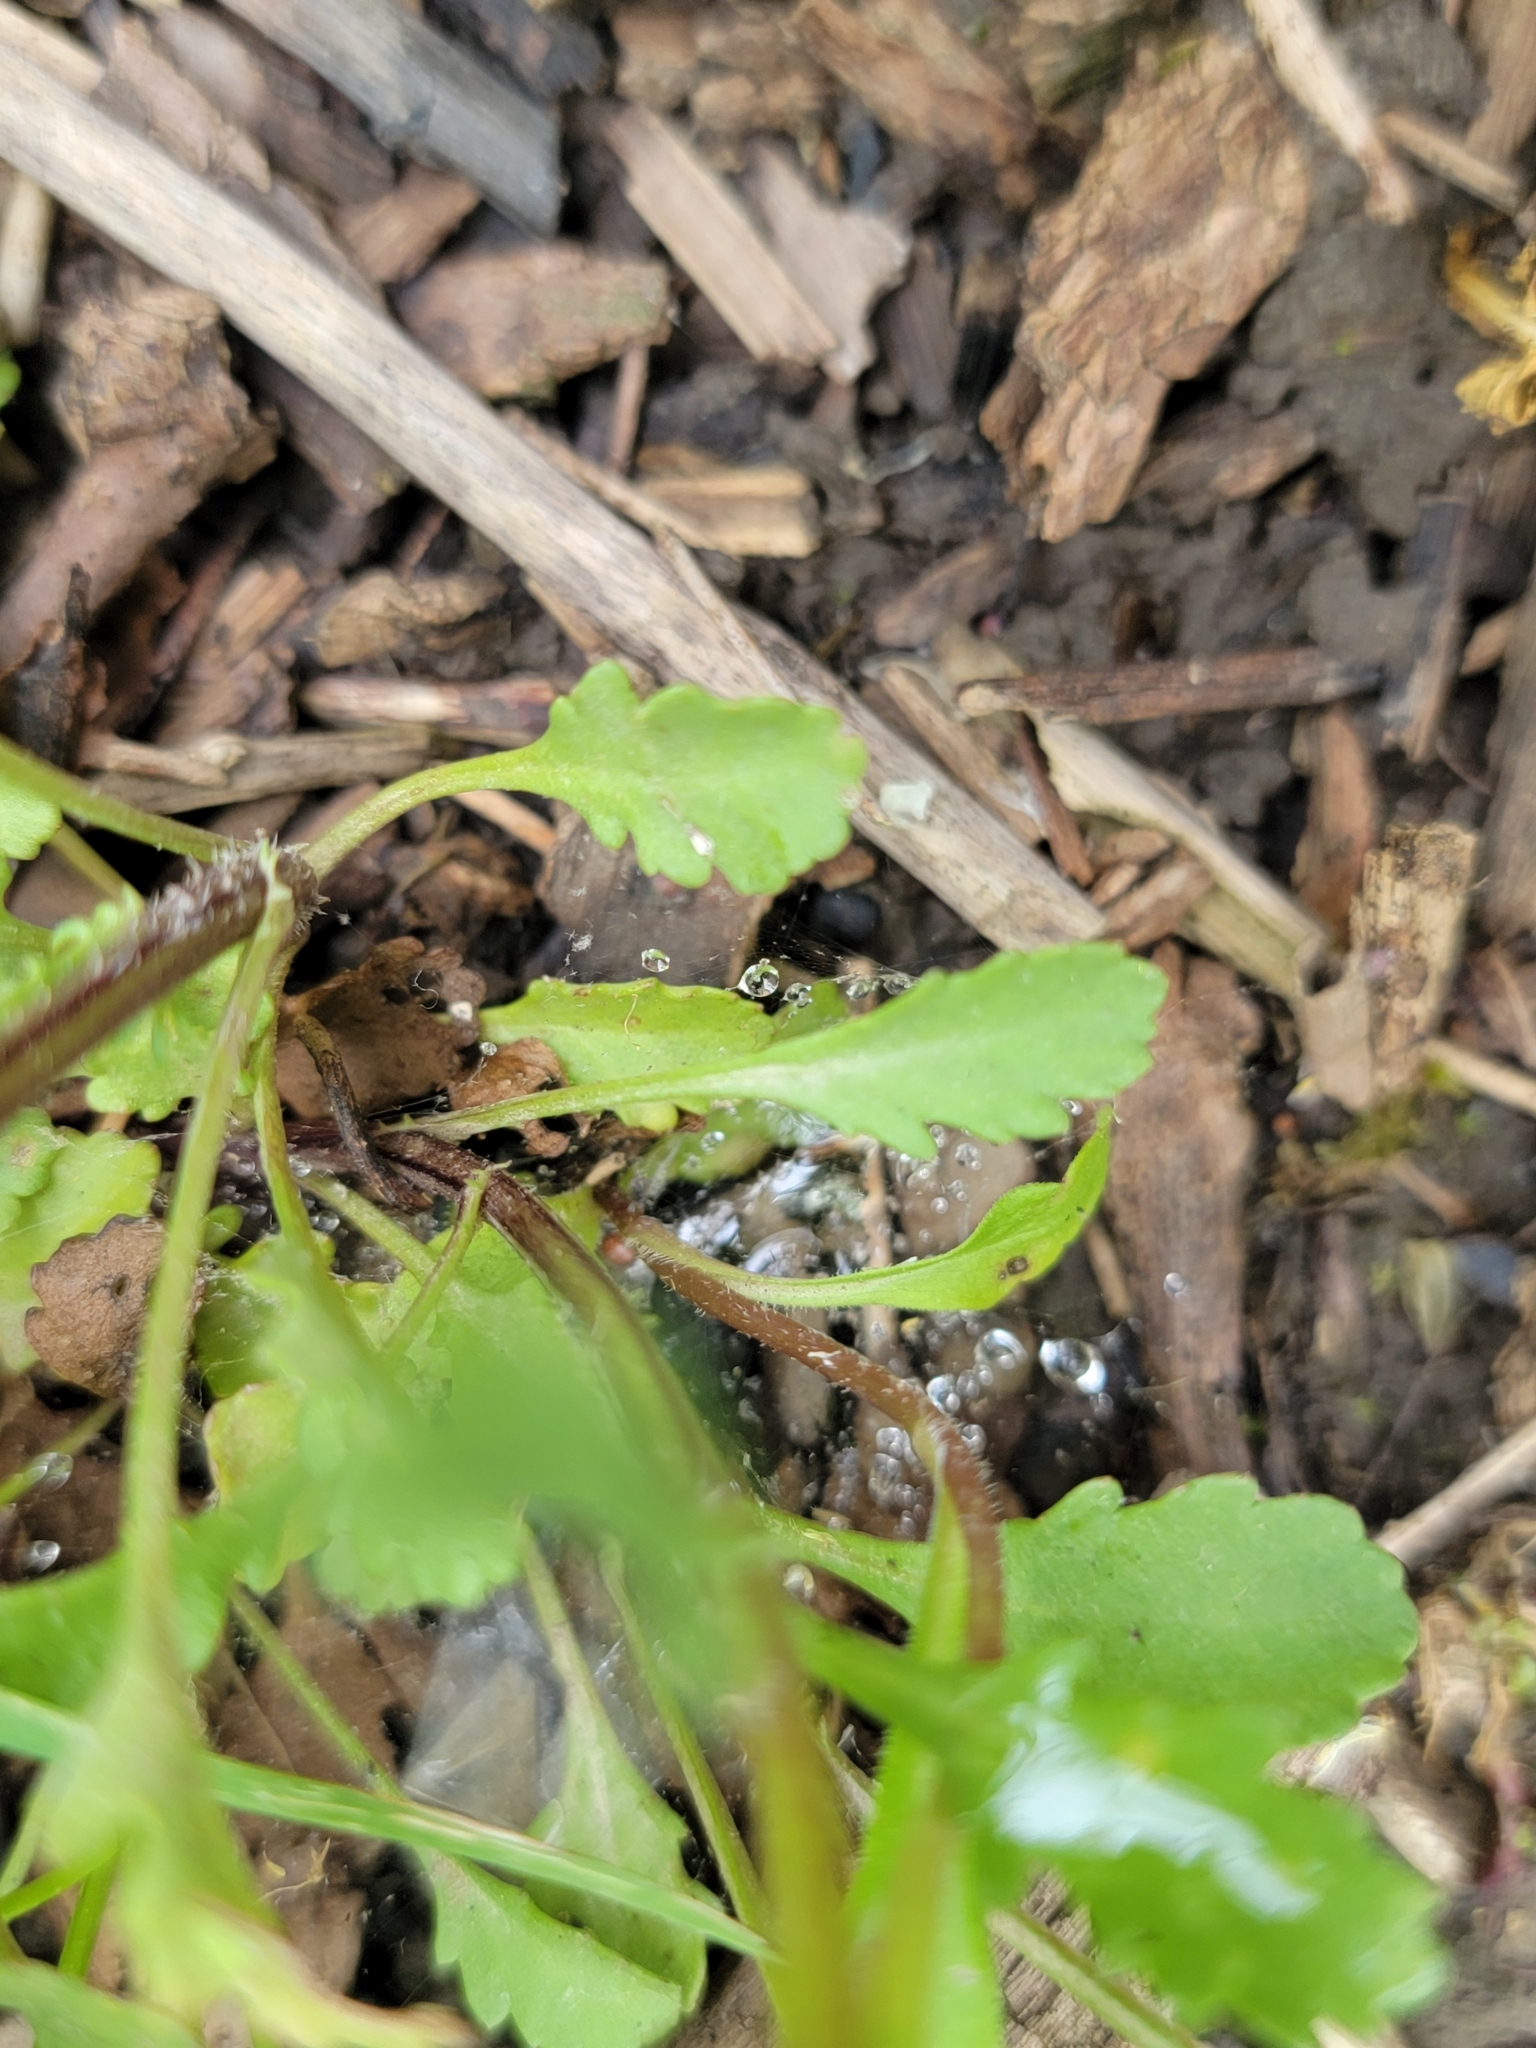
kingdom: Plantae
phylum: Tracheophyta
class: Magnoliopsida
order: Asterales
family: Asteraceae
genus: Leucanthemum
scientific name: Leucanthemum vulgare
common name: Oxeye daisy
